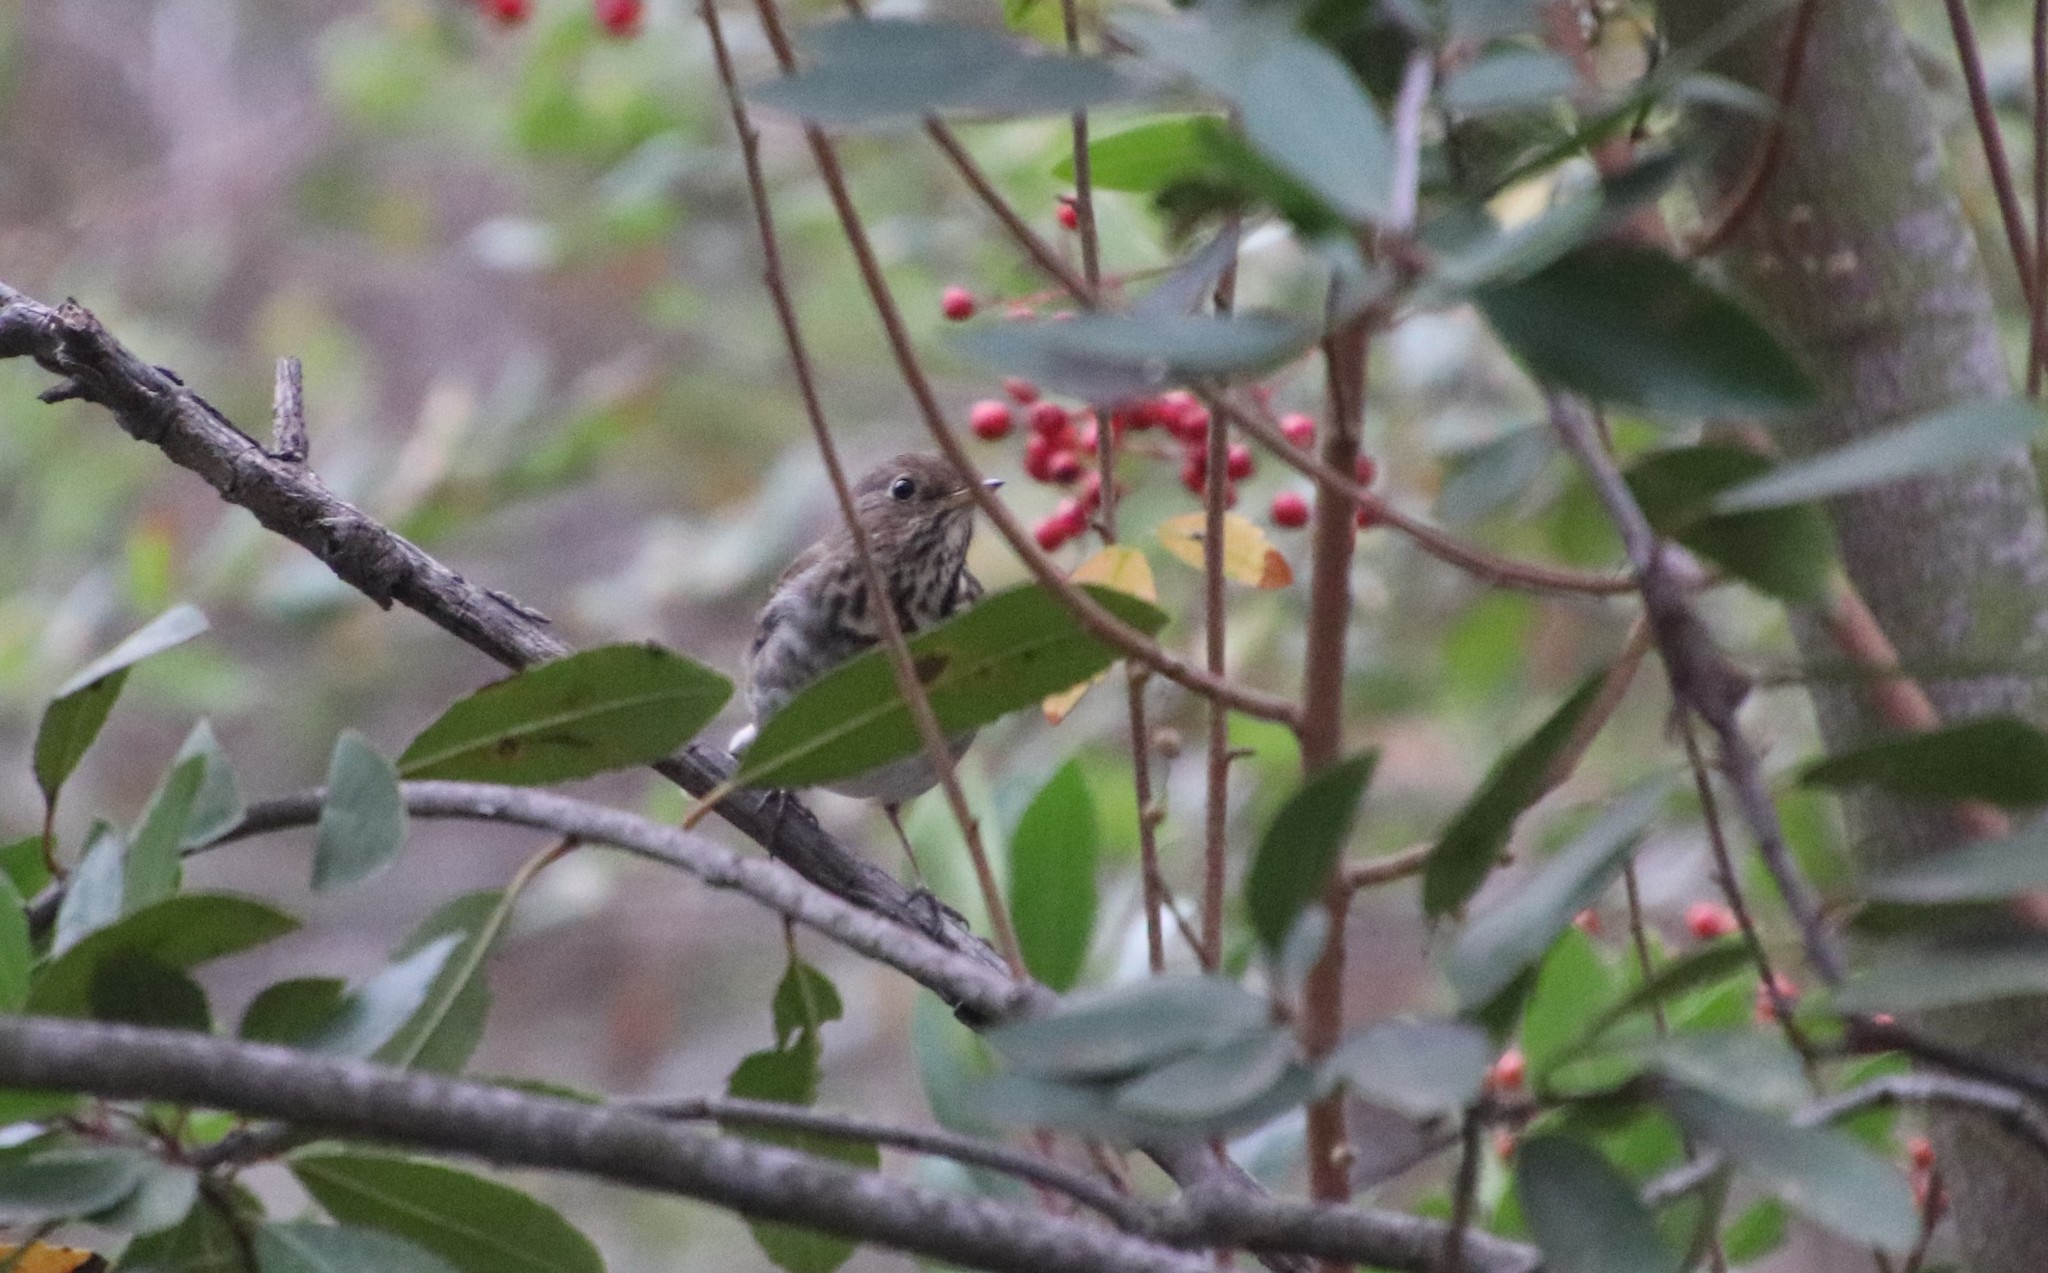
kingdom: Animalia
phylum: Chordata
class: Aves
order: Passeriformes
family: Turdidae
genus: Catharus
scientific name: Catharus guttatus
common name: Hermit thrush
